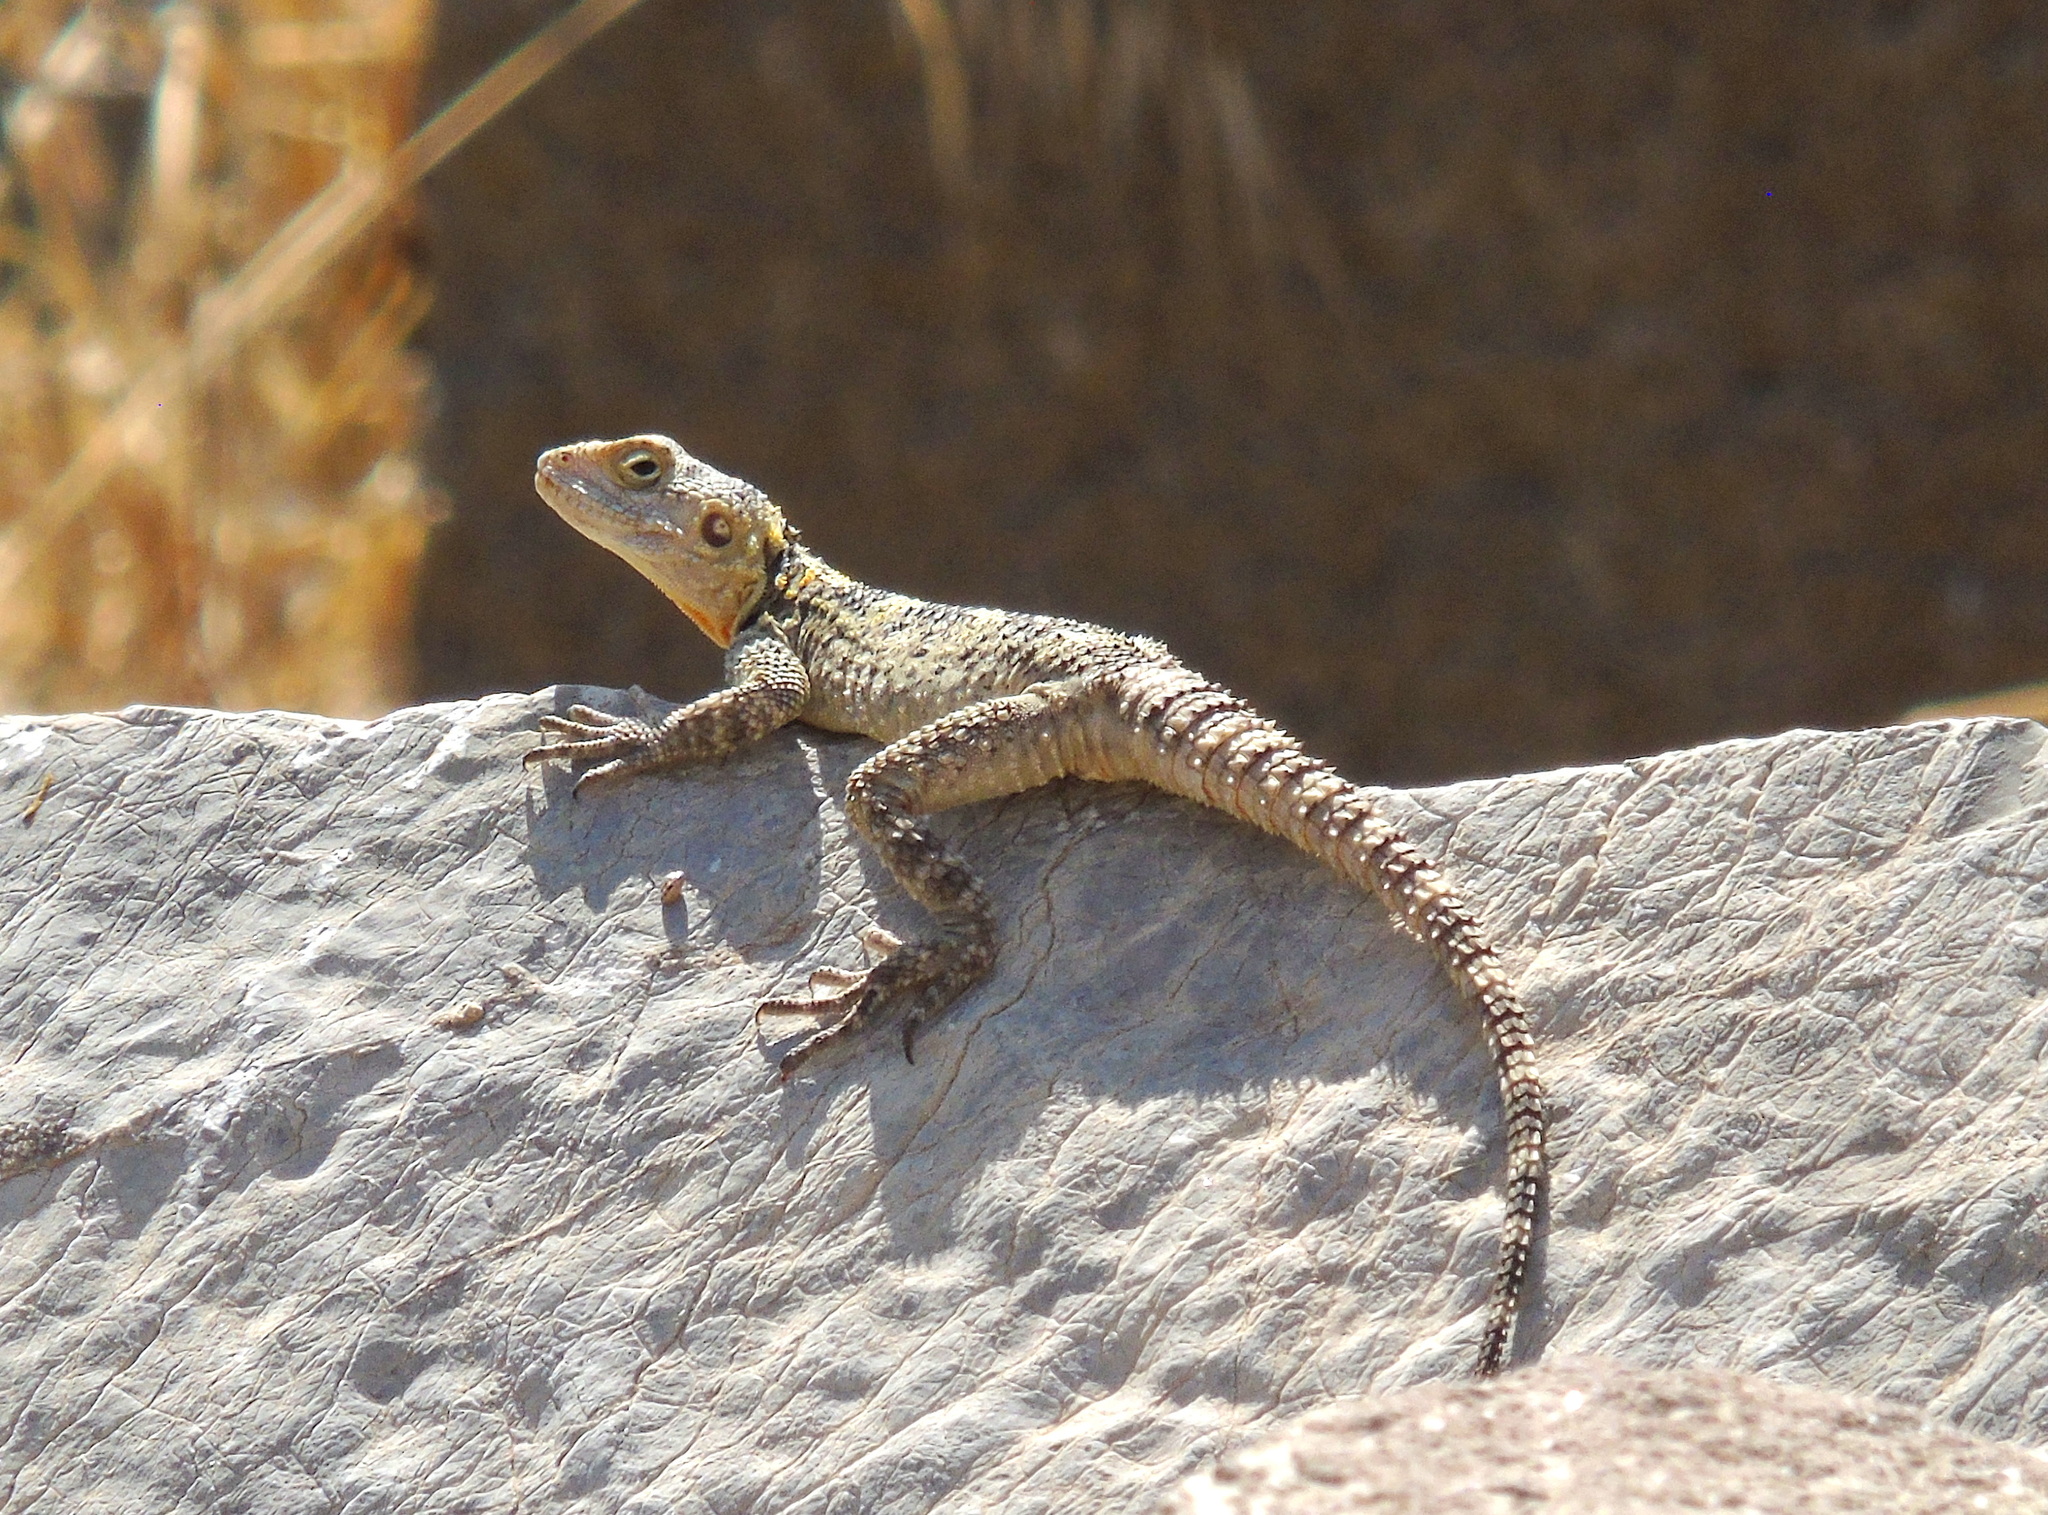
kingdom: Animalia
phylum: Chordata
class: Squamata
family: Agamidae
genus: Stellagama
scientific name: Stellagama stellio
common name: Starred agama
